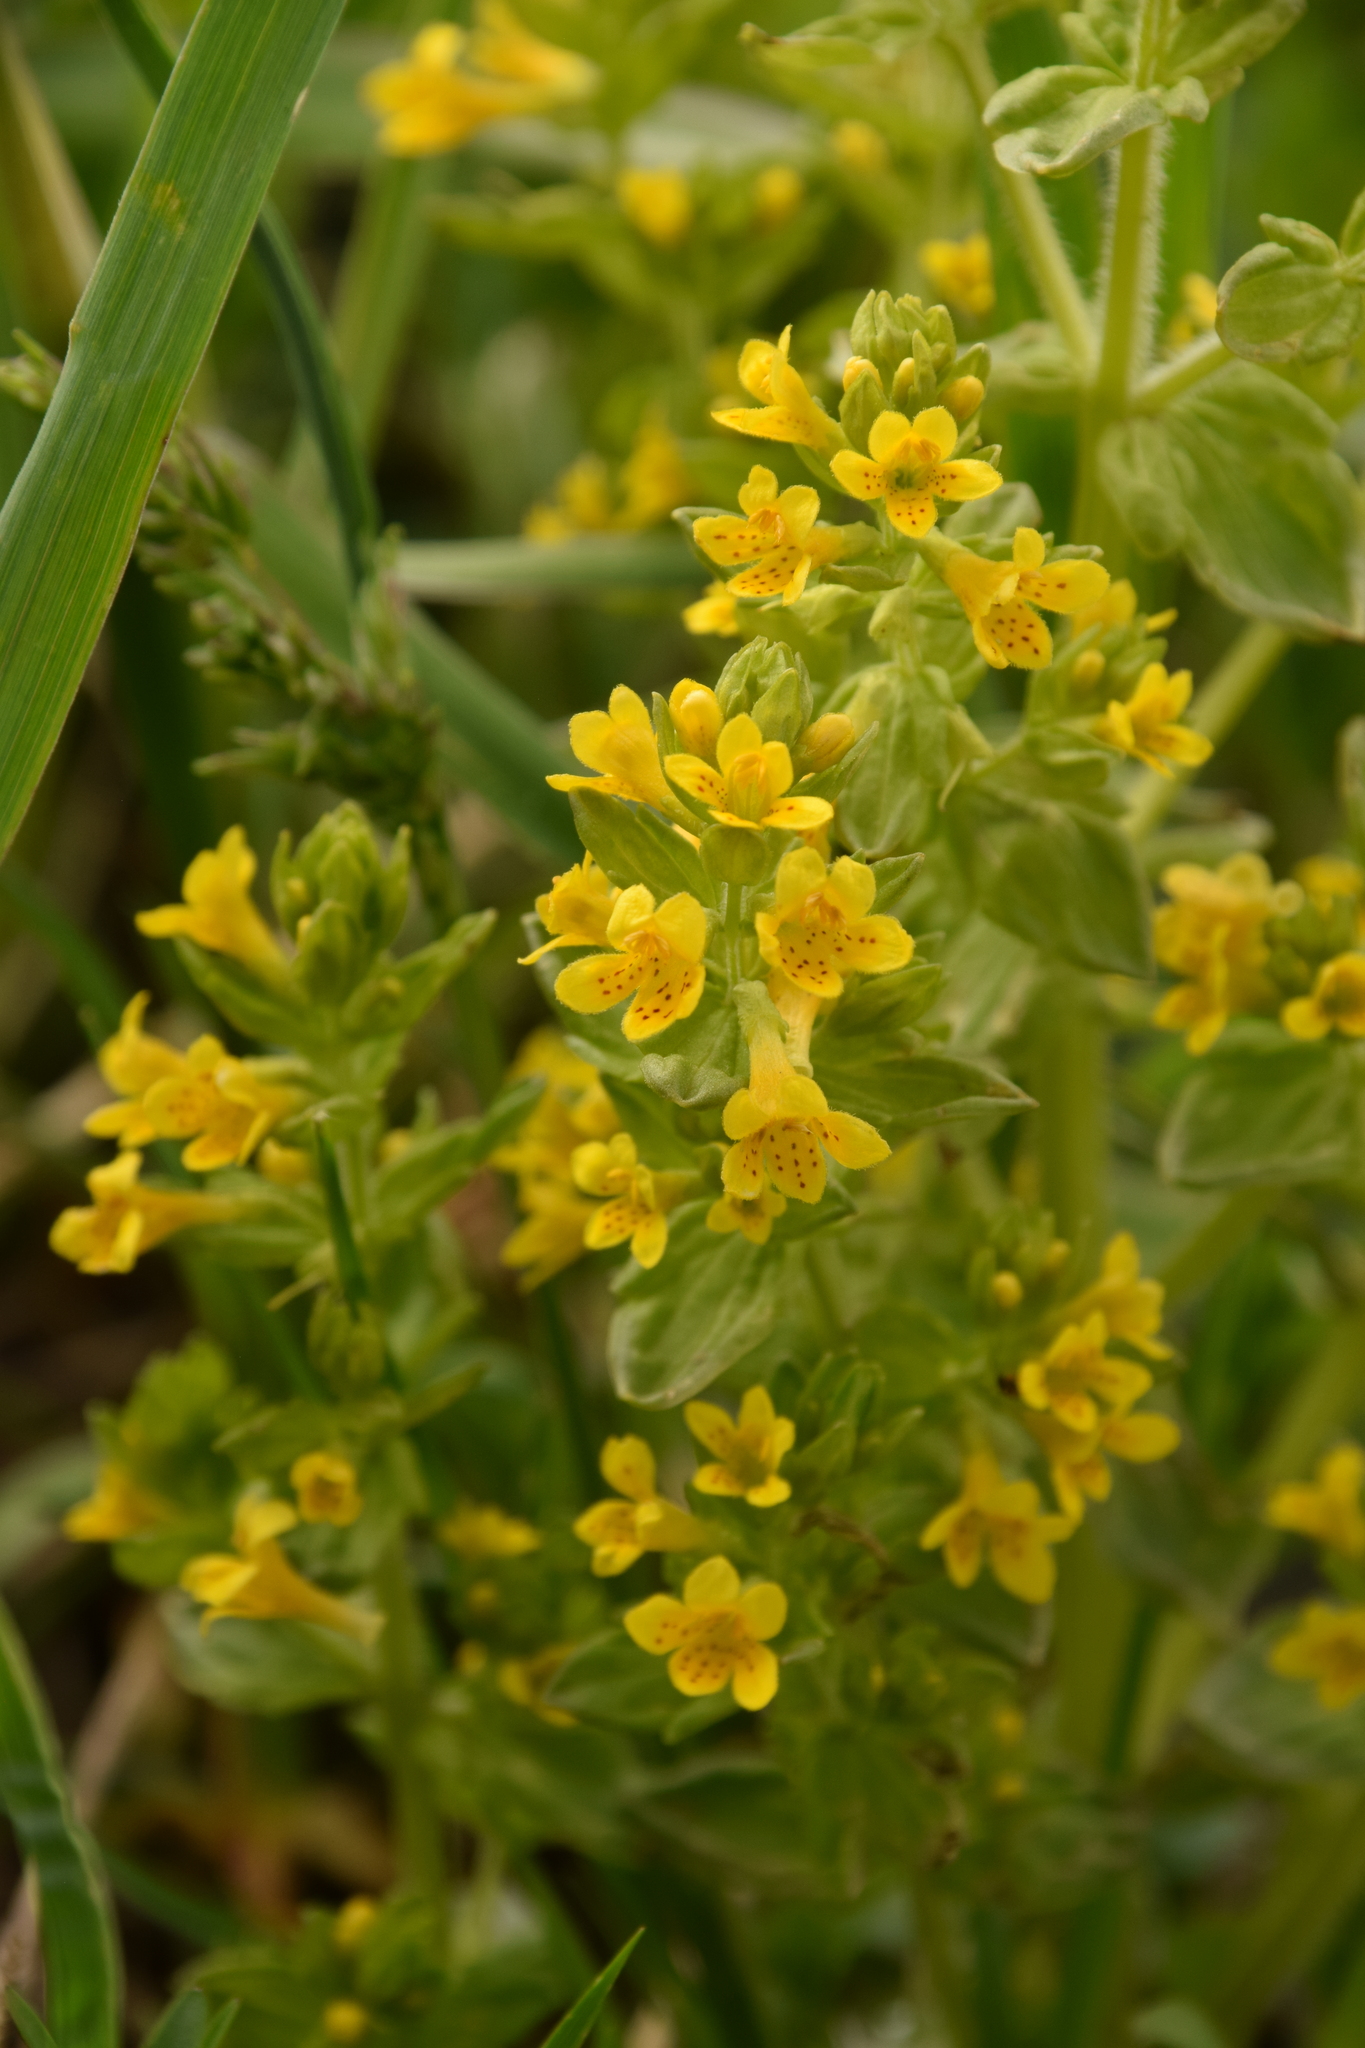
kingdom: Plantae
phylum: Tracheophyta
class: Magnoliopsida
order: Lamiales
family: Orobanchaceae
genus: Tozzia
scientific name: Tozzia alpina
